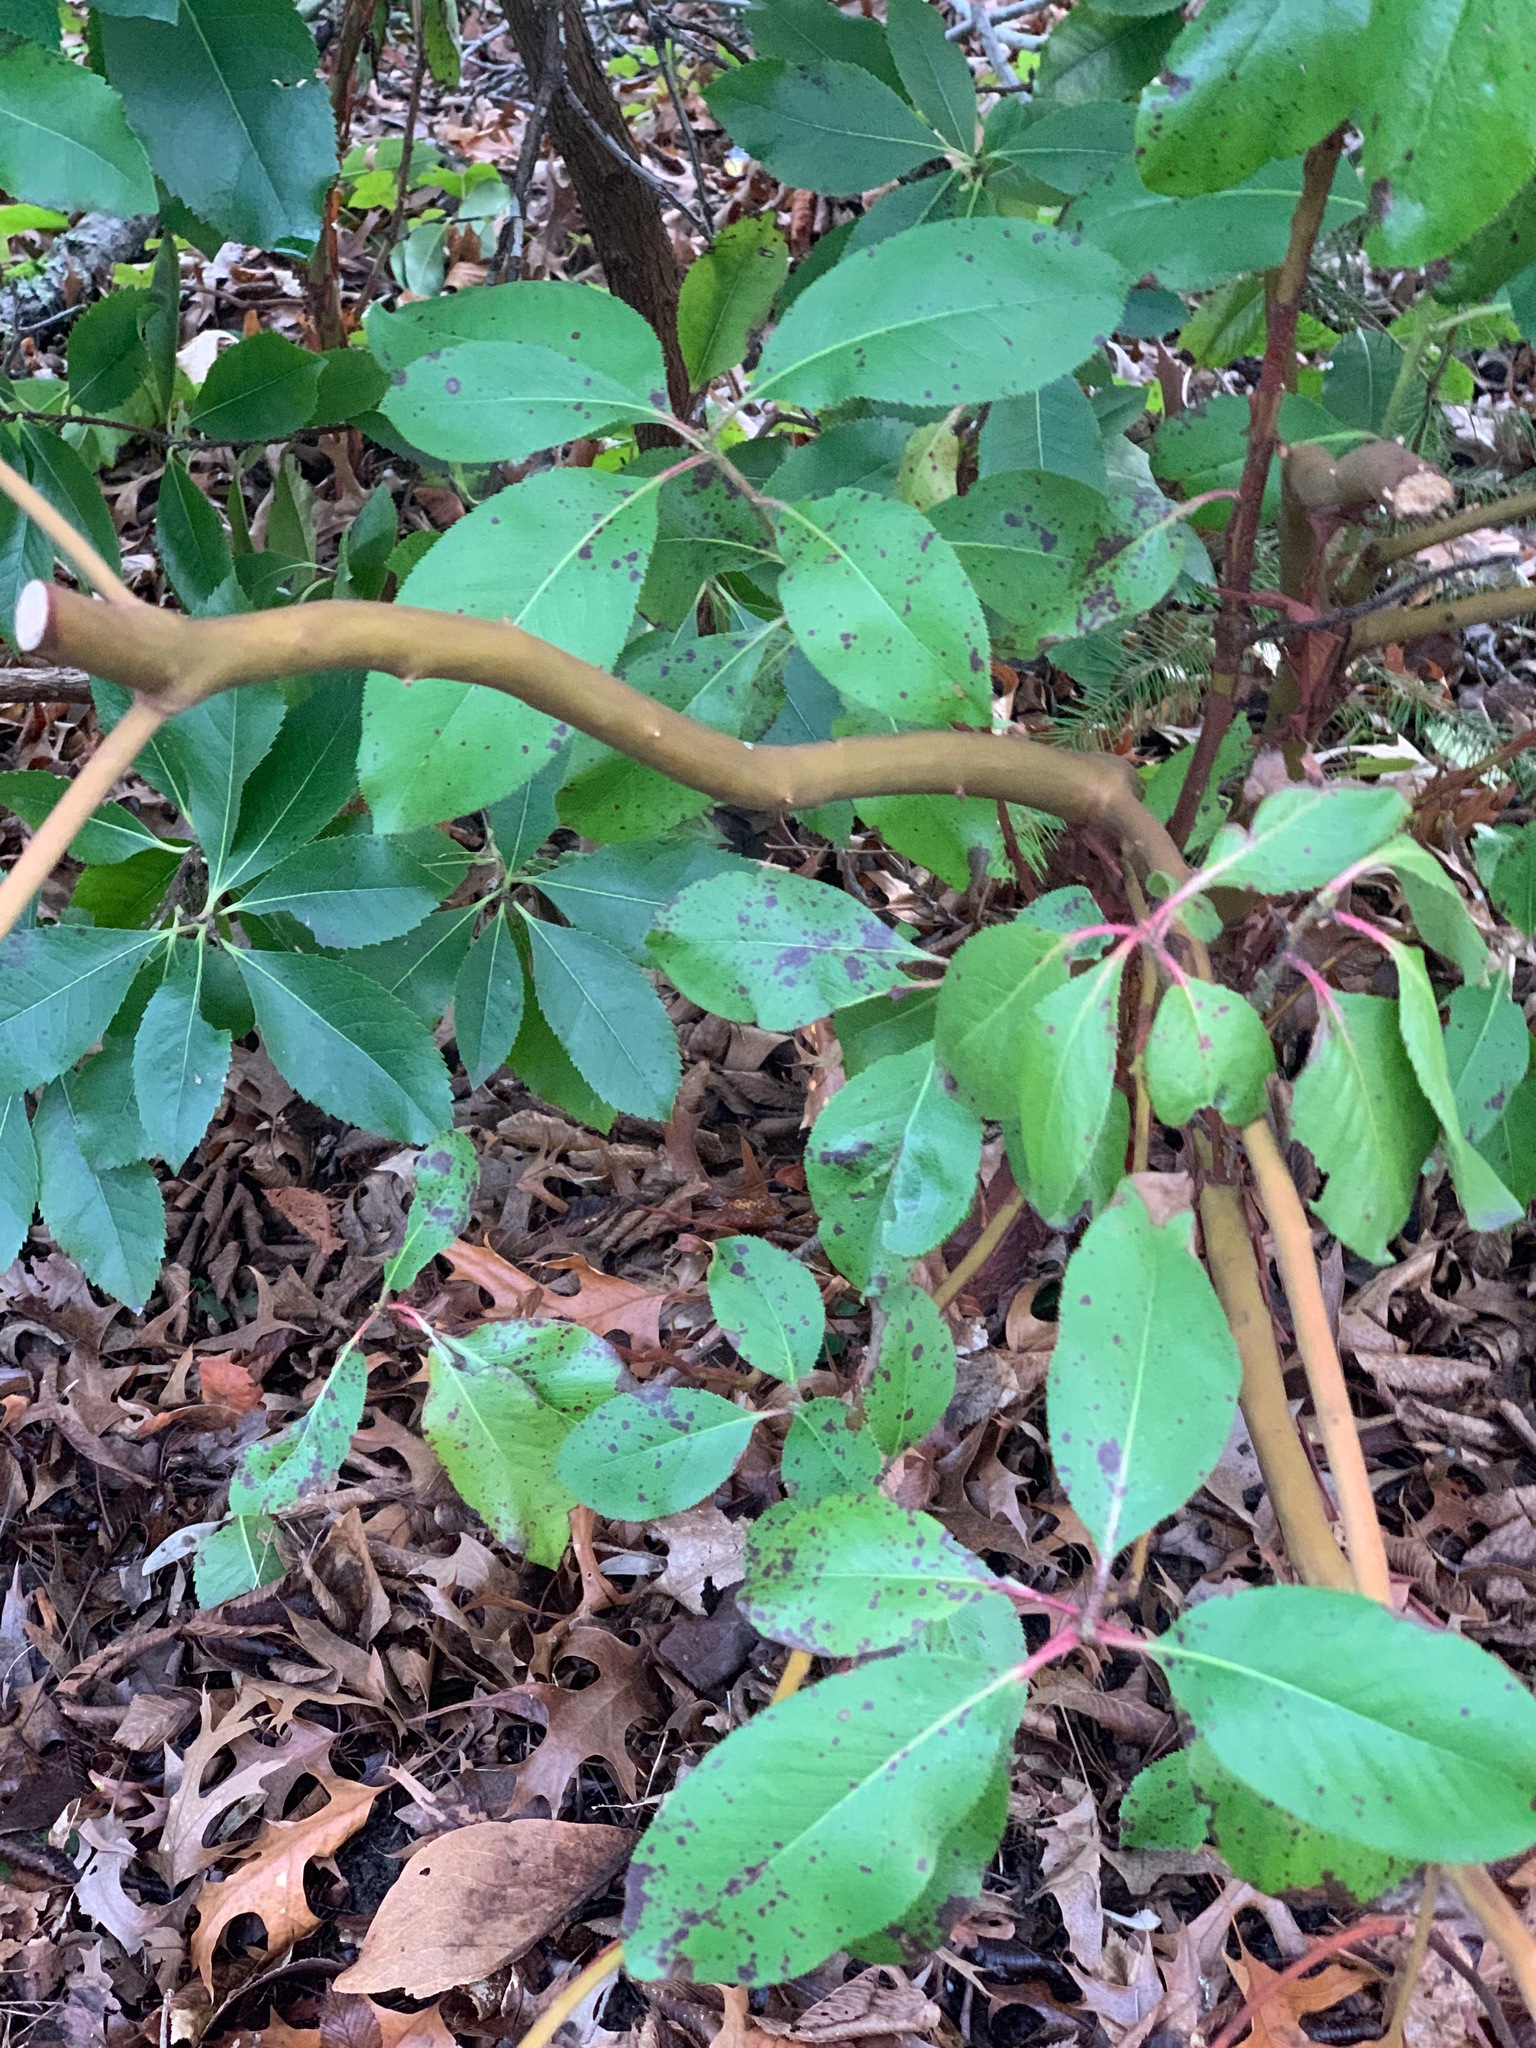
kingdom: Plantae
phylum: Tracheophyta
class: Magnoliopsida
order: Ericales
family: Ericaceae
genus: Arbutus
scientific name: Arbutus menziesii
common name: Pacific madrone
